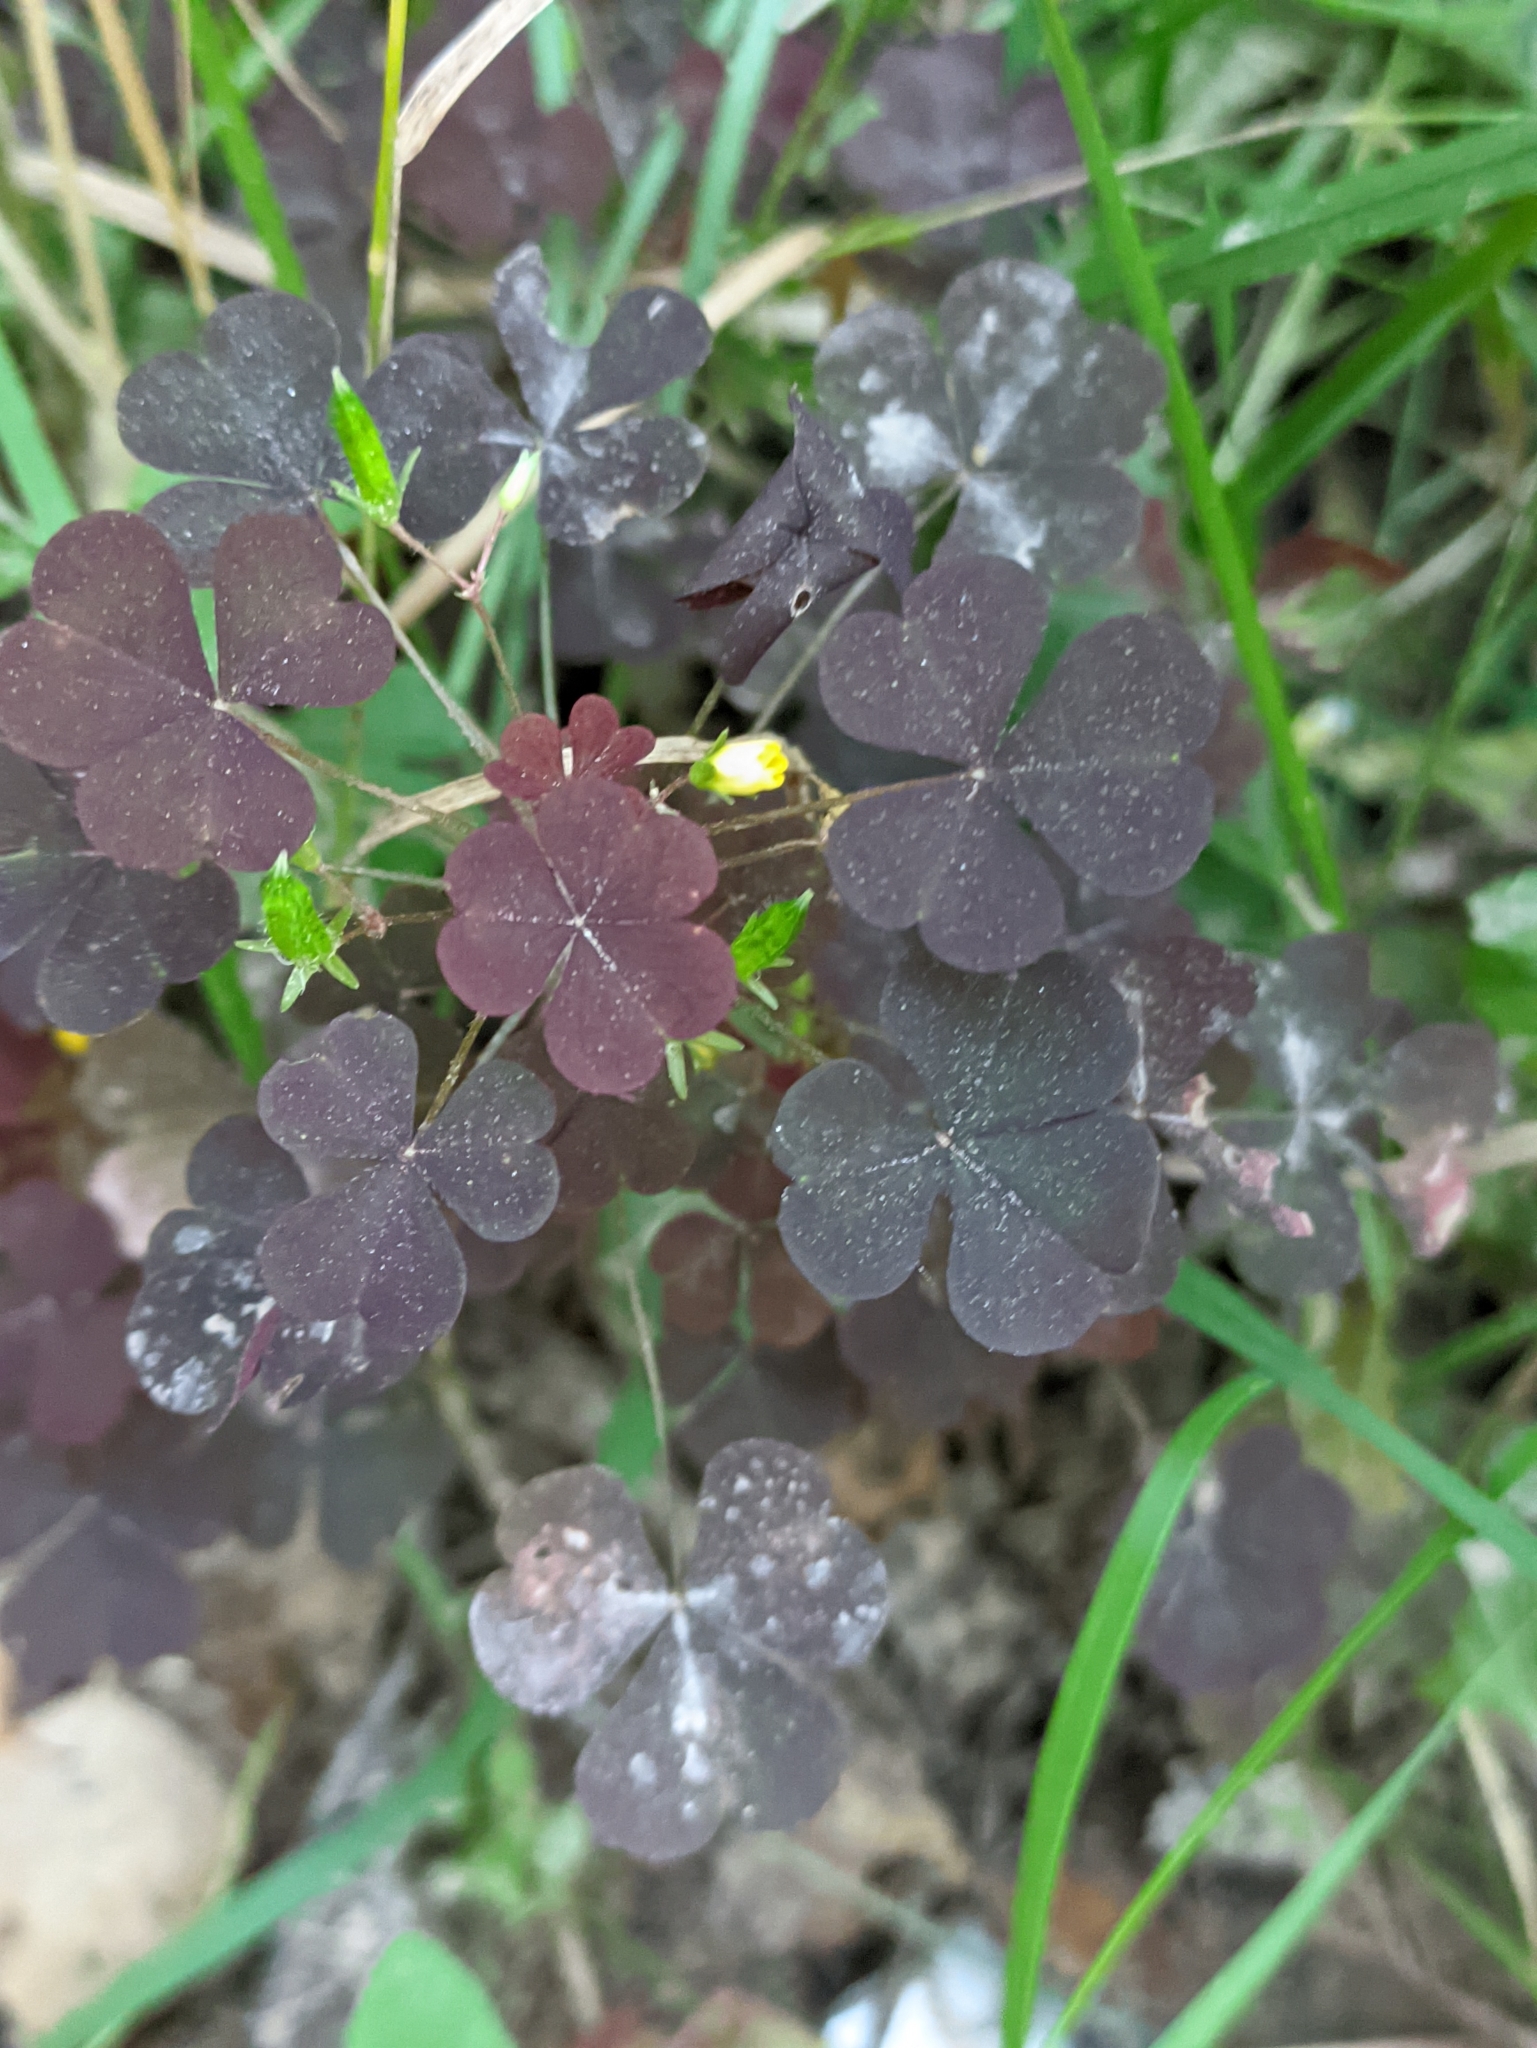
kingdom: Plantae
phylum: Tracheophyta
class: Magnoliopsida
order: Oxalidales
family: Oxalidaceae
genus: Oxalis
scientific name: Oxalis stricta
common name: Upright yellow-sorrel
